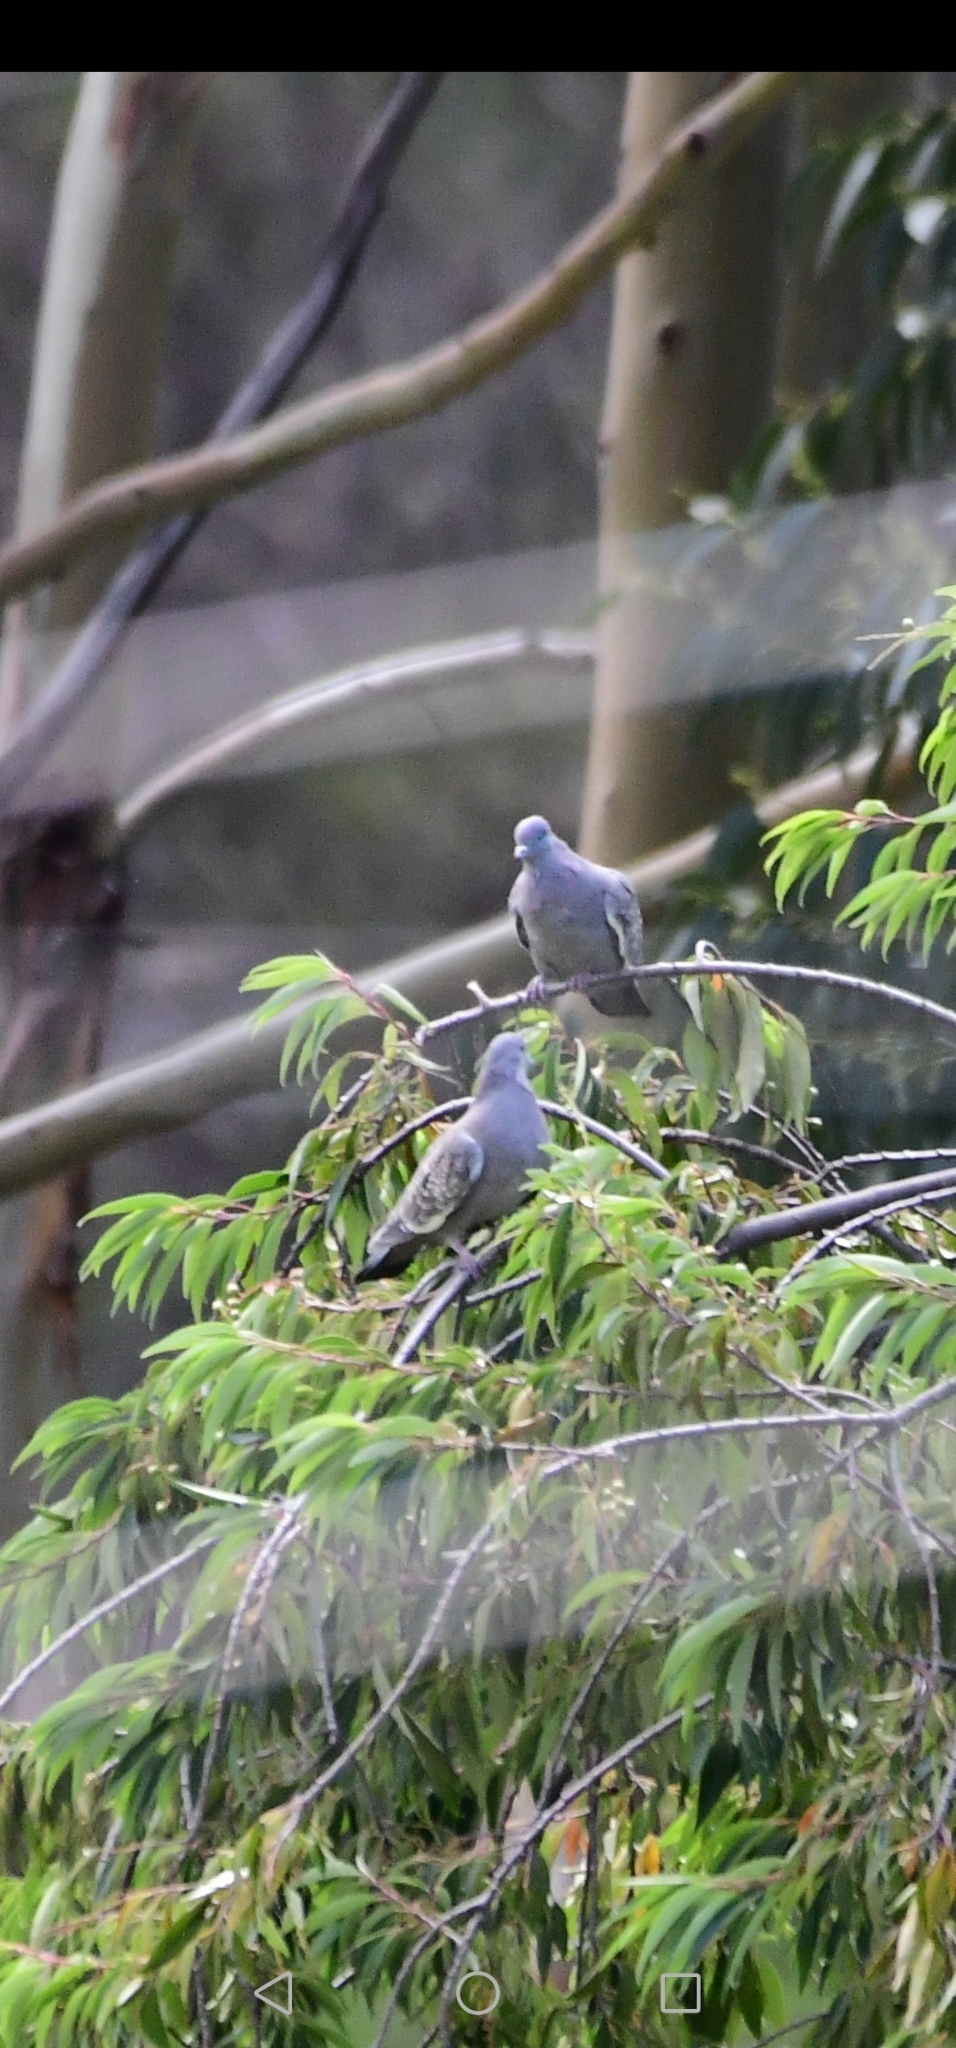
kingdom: Animalia
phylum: Chordata
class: Aves
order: Columbiformes
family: Columbidae
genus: Patagioenas
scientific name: Patagioenas maculosa
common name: Spot-winged pigeon
